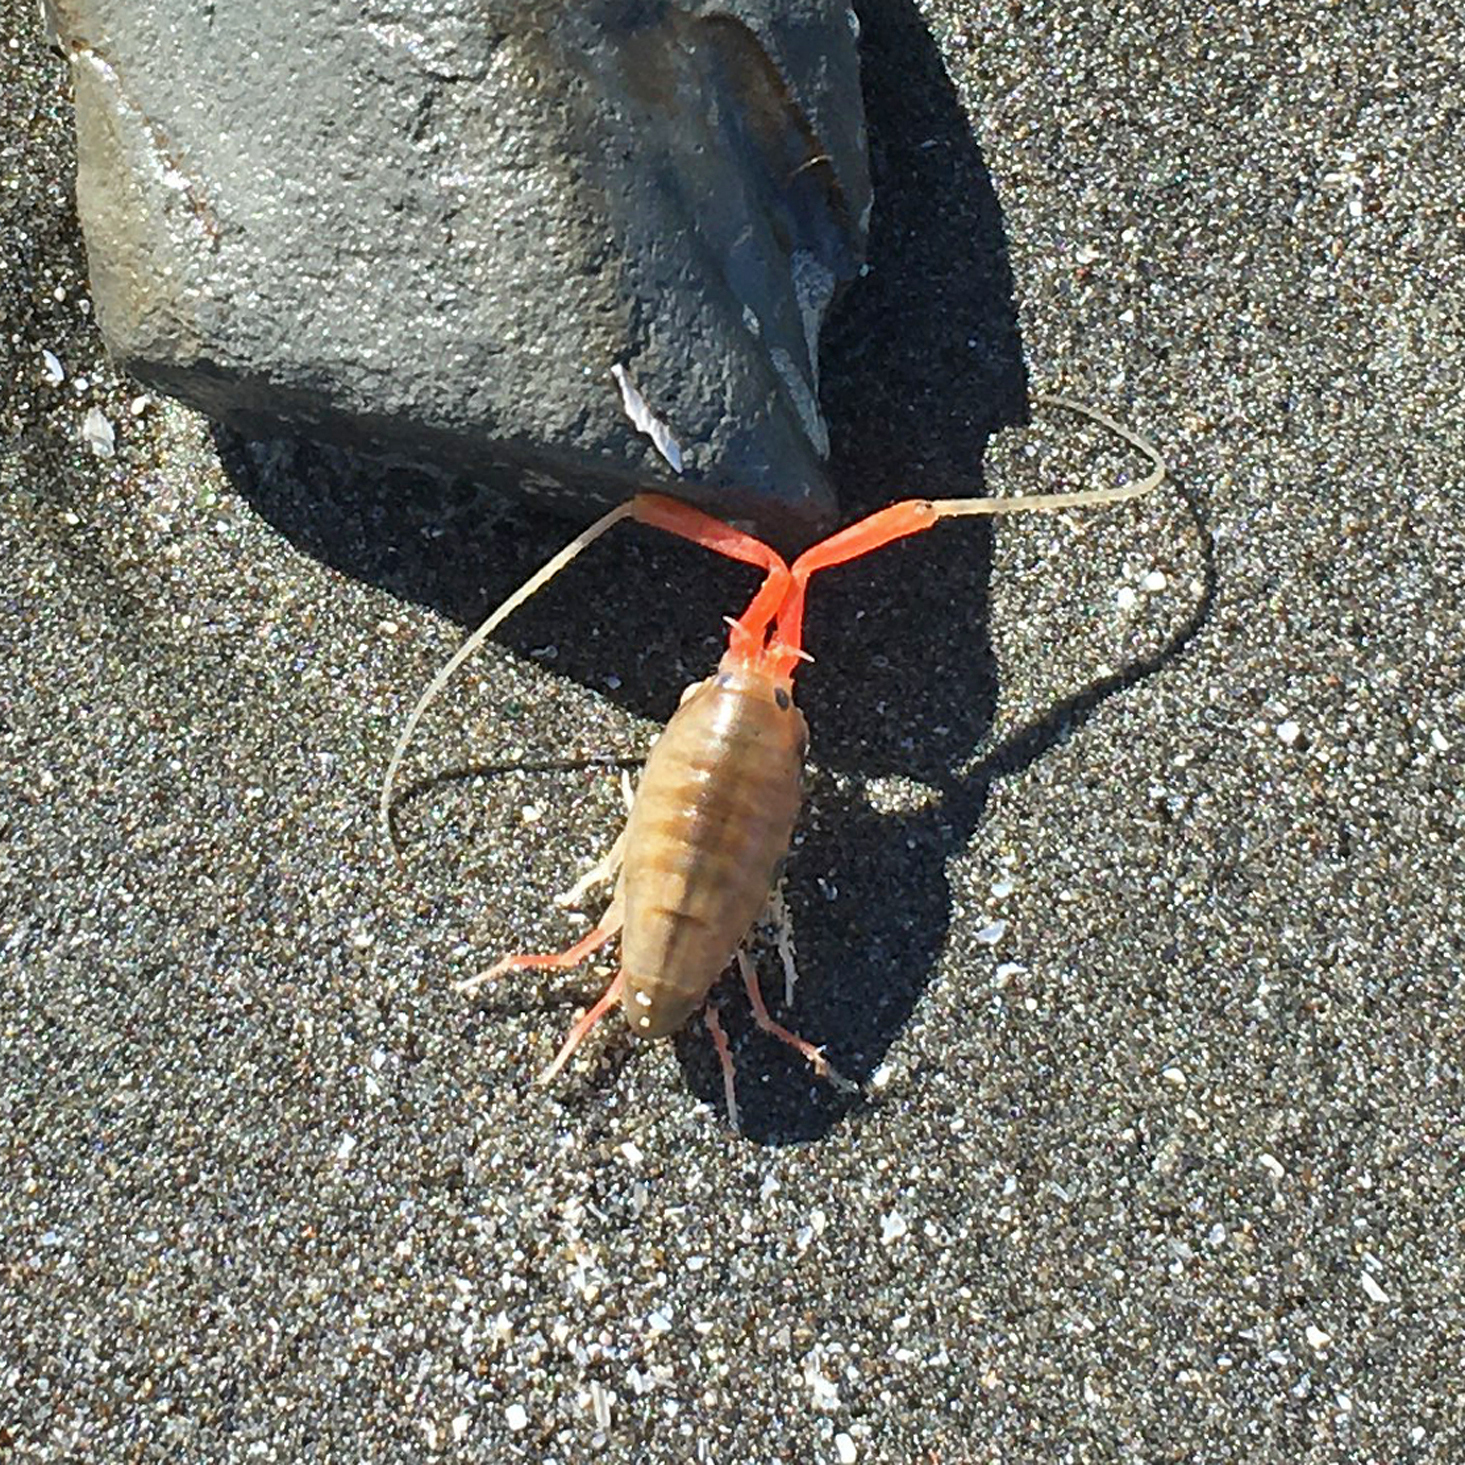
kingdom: Animalia
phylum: Arthropoda
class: Malacostraca
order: Amphipoda
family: Talitridae
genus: Megalorchestia
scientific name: Megalorchestia californiana
